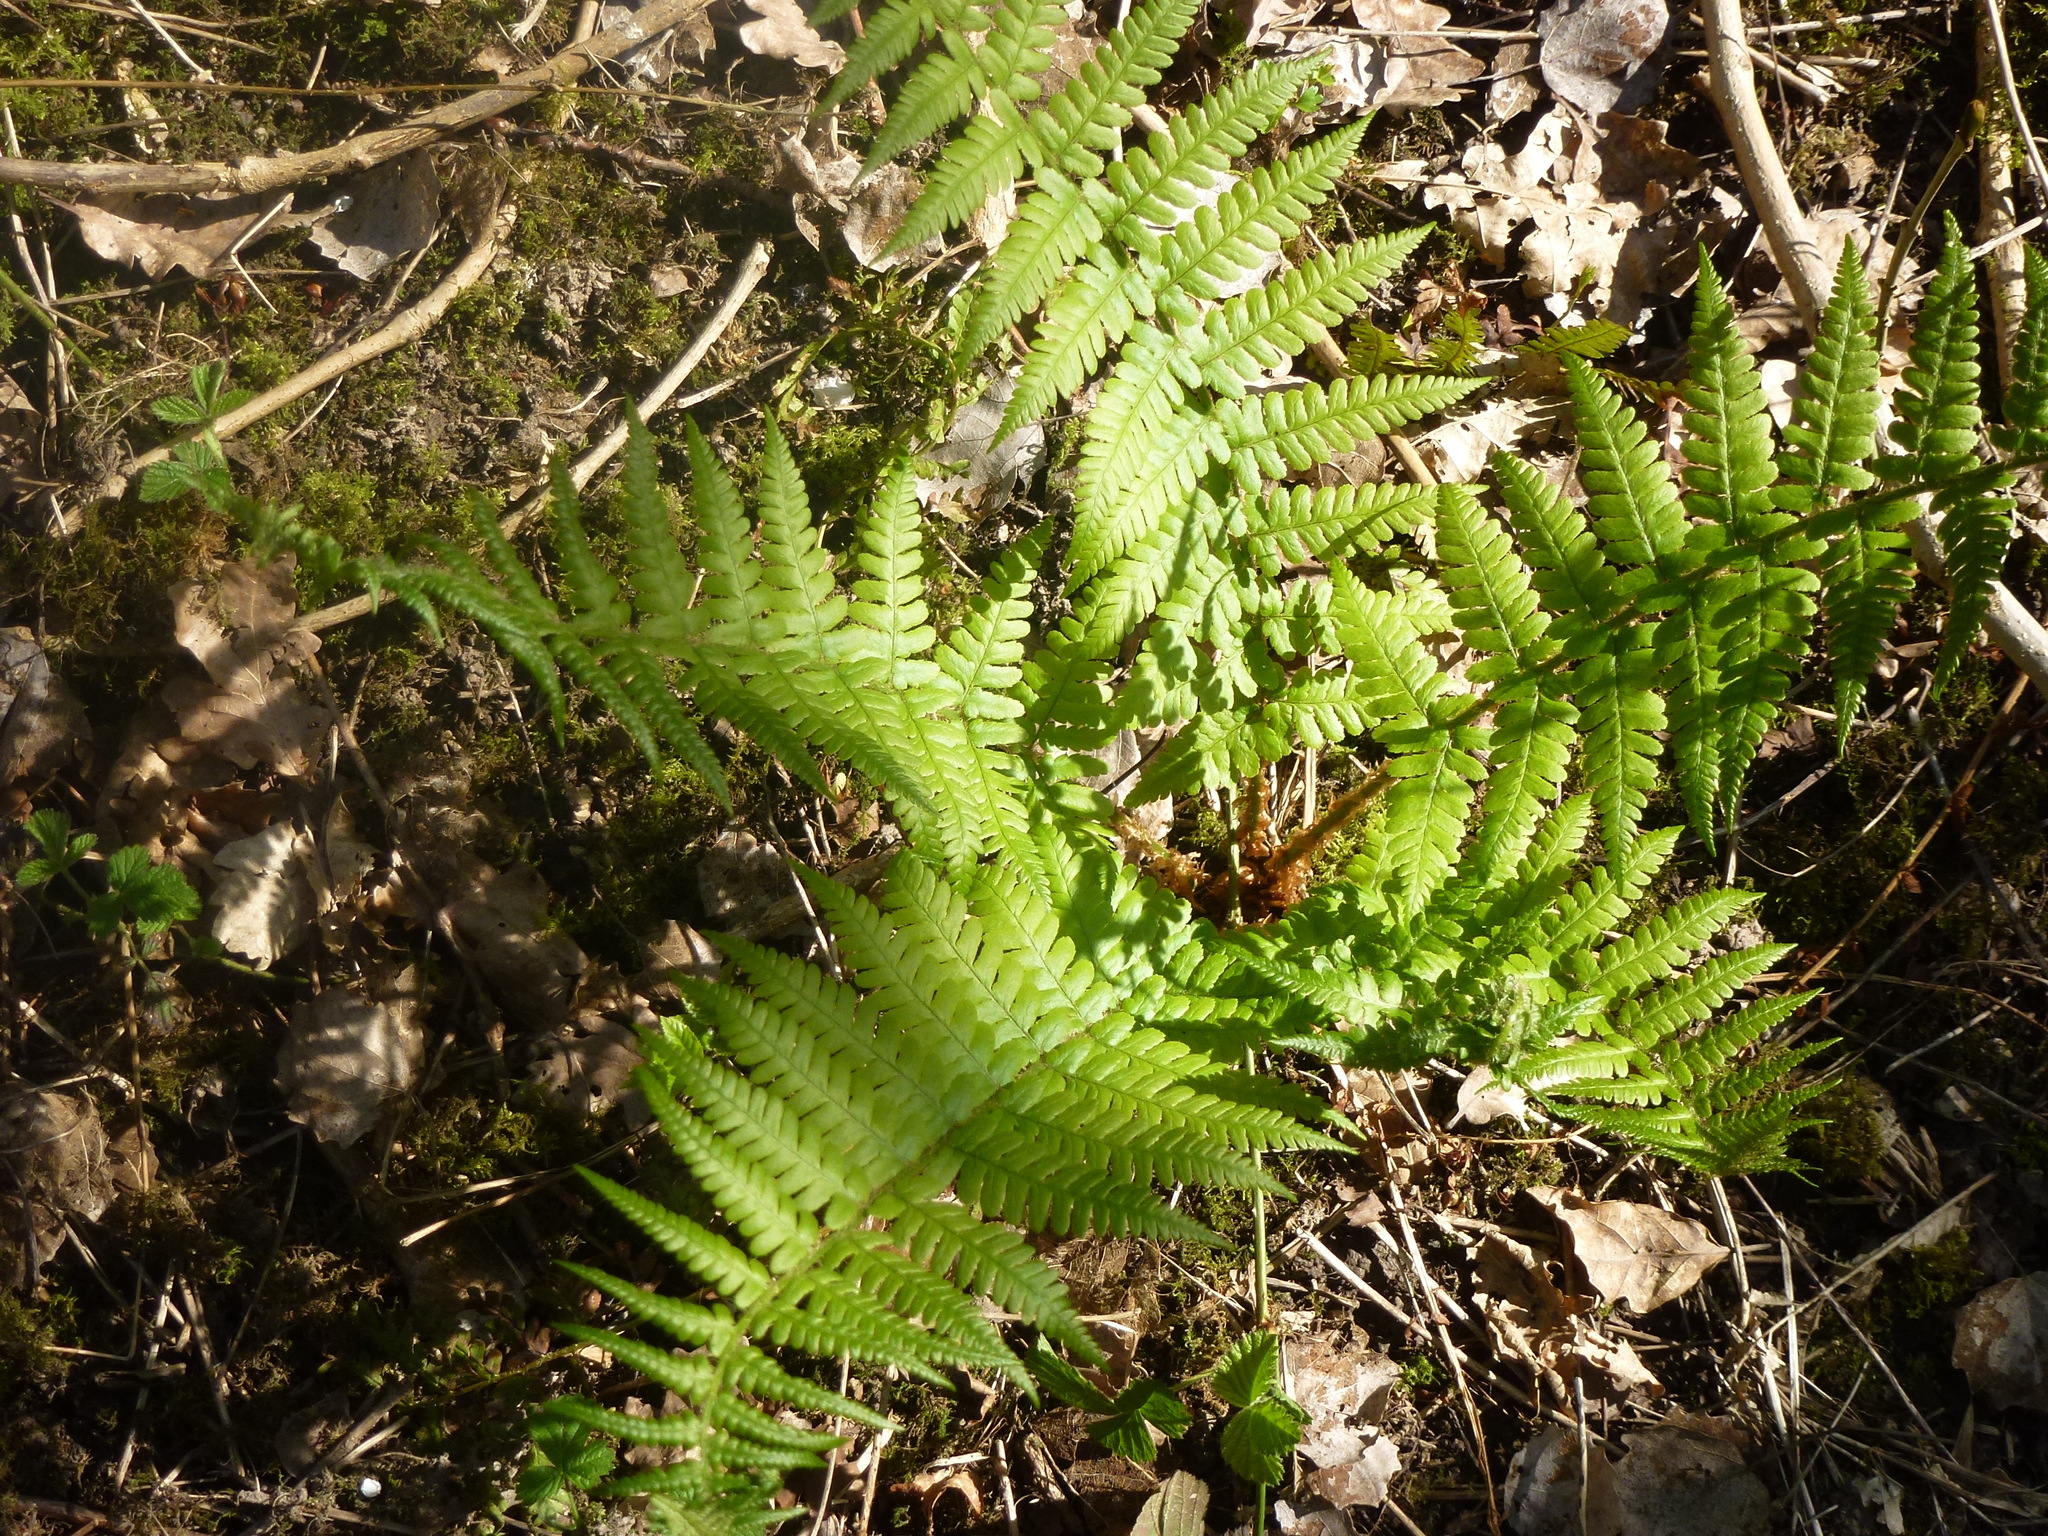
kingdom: Plantae
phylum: Tracheophyta
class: Polypodiopsida
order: Polypodiales
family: Dryopteridaceae
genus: Dryopteris
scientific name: Dryopteris filix-mas
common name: Male fern
